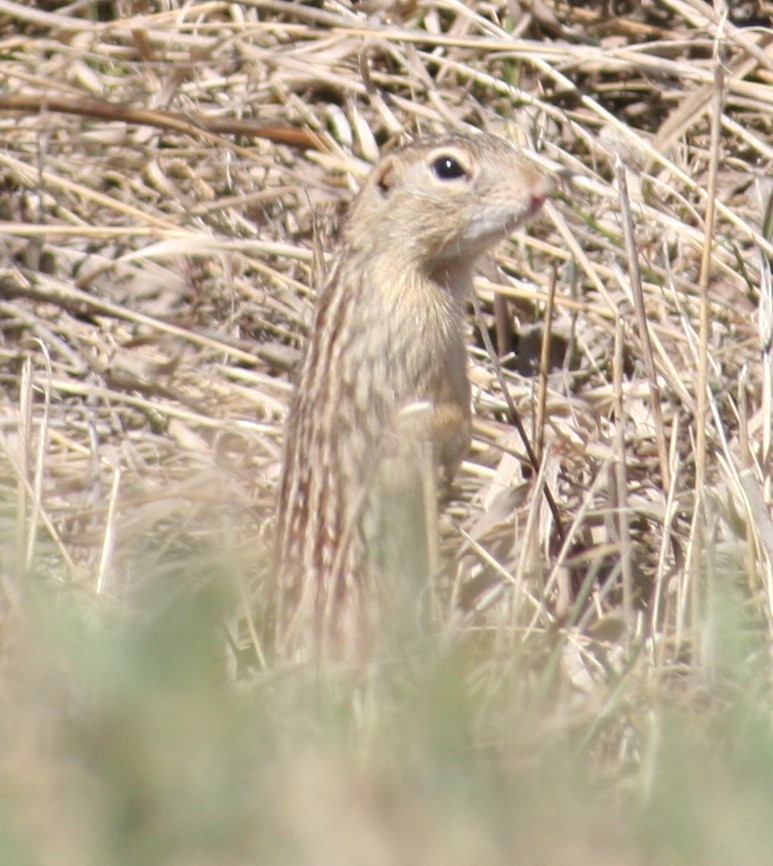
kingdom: Animalia
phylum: Chordata
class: Mammalia
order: Rodentia
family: Sciuridae
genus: Ictidomys
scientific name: Ictidomys tridecemlineatus
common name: Thirteen-lined ground squirrel
